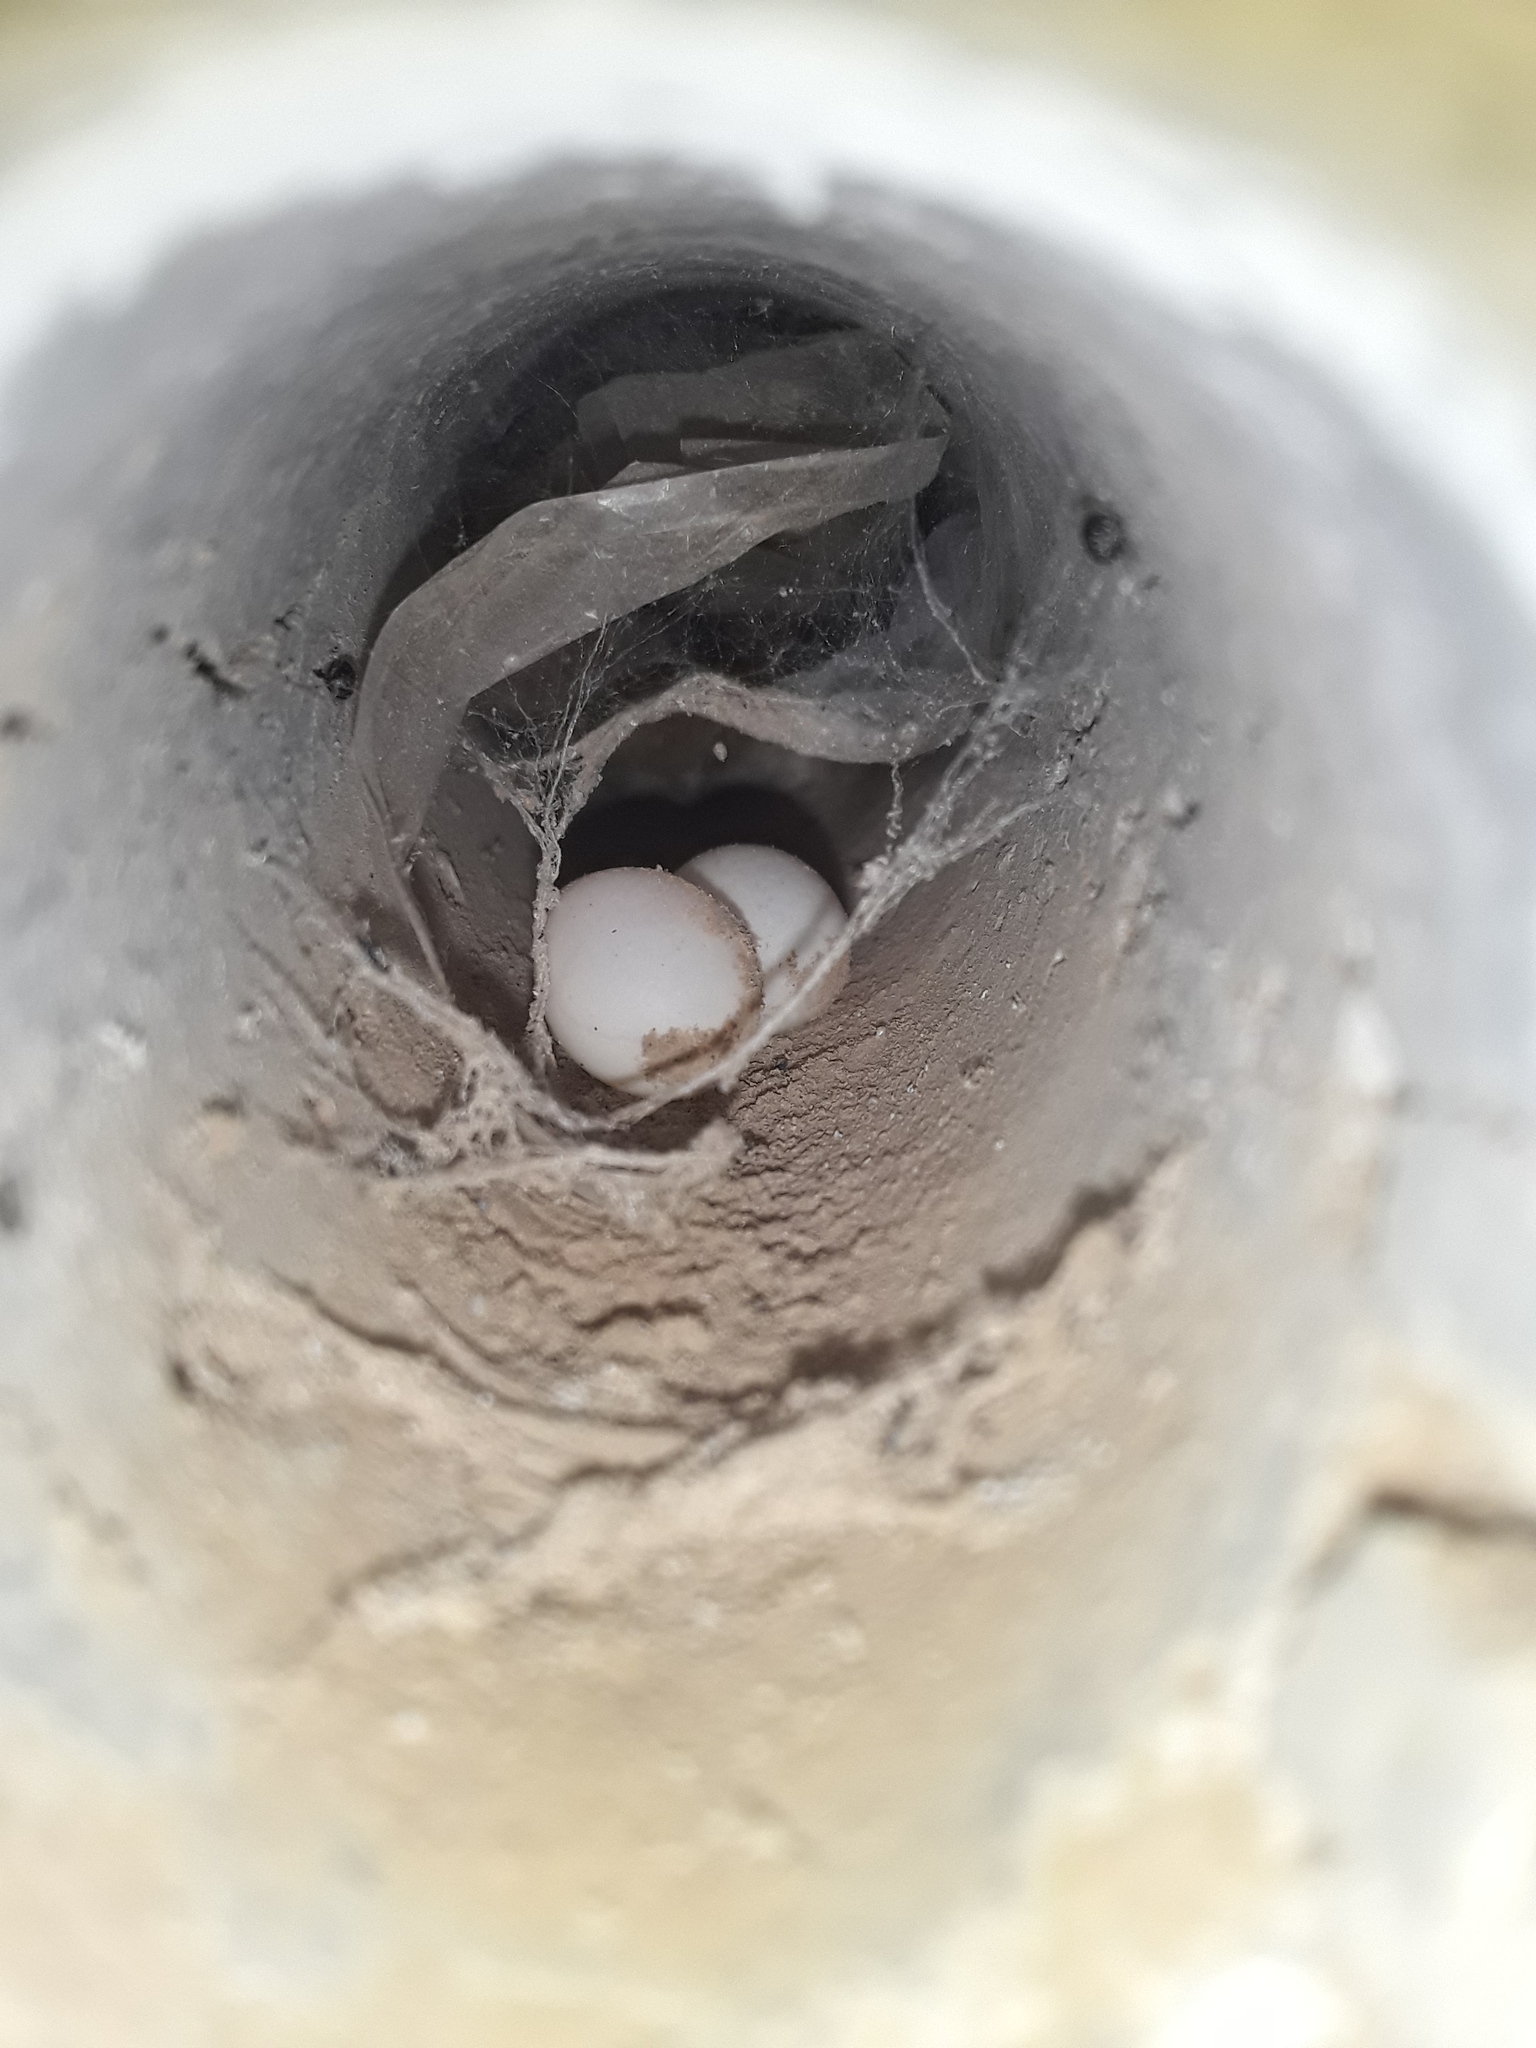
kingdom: Animalia
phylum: Chordata
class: Squamata
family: Gekkonidae
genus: Cyrtopodion
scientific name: Cyrtopodion scabrum
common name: Rough-tailed gecko
